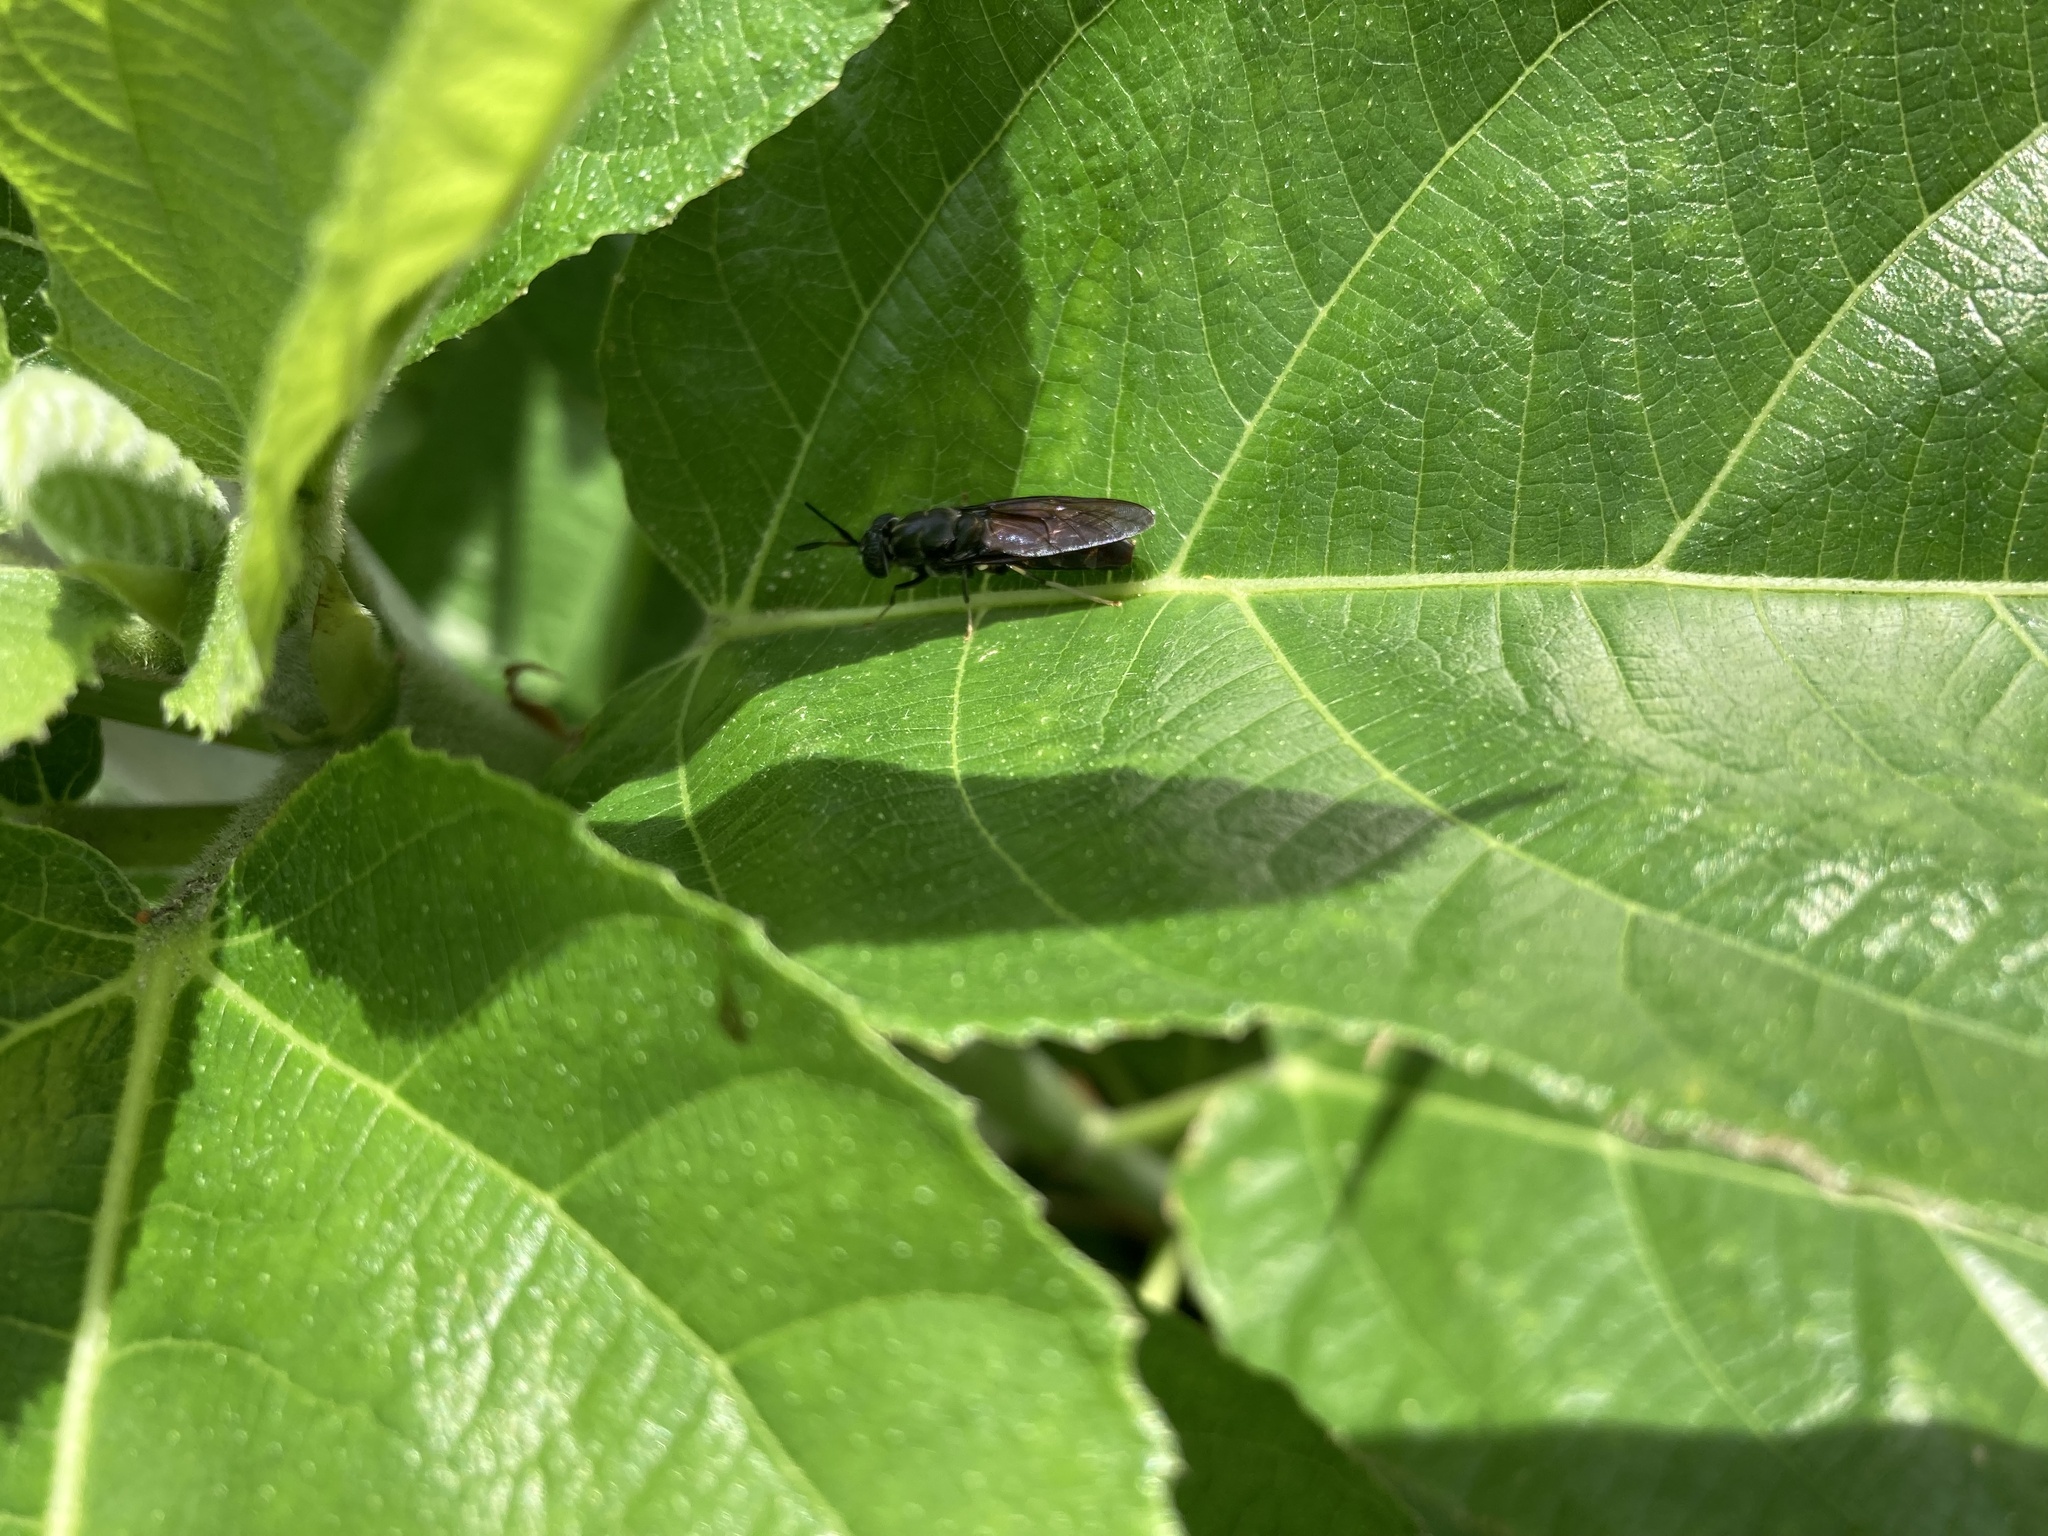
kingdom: Animalia
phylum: Arthropoda
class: Insecta
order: Diptera
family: Stratiomyidae
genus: Hermetia
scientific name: Hermetia illucens
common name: Black soldier fly
